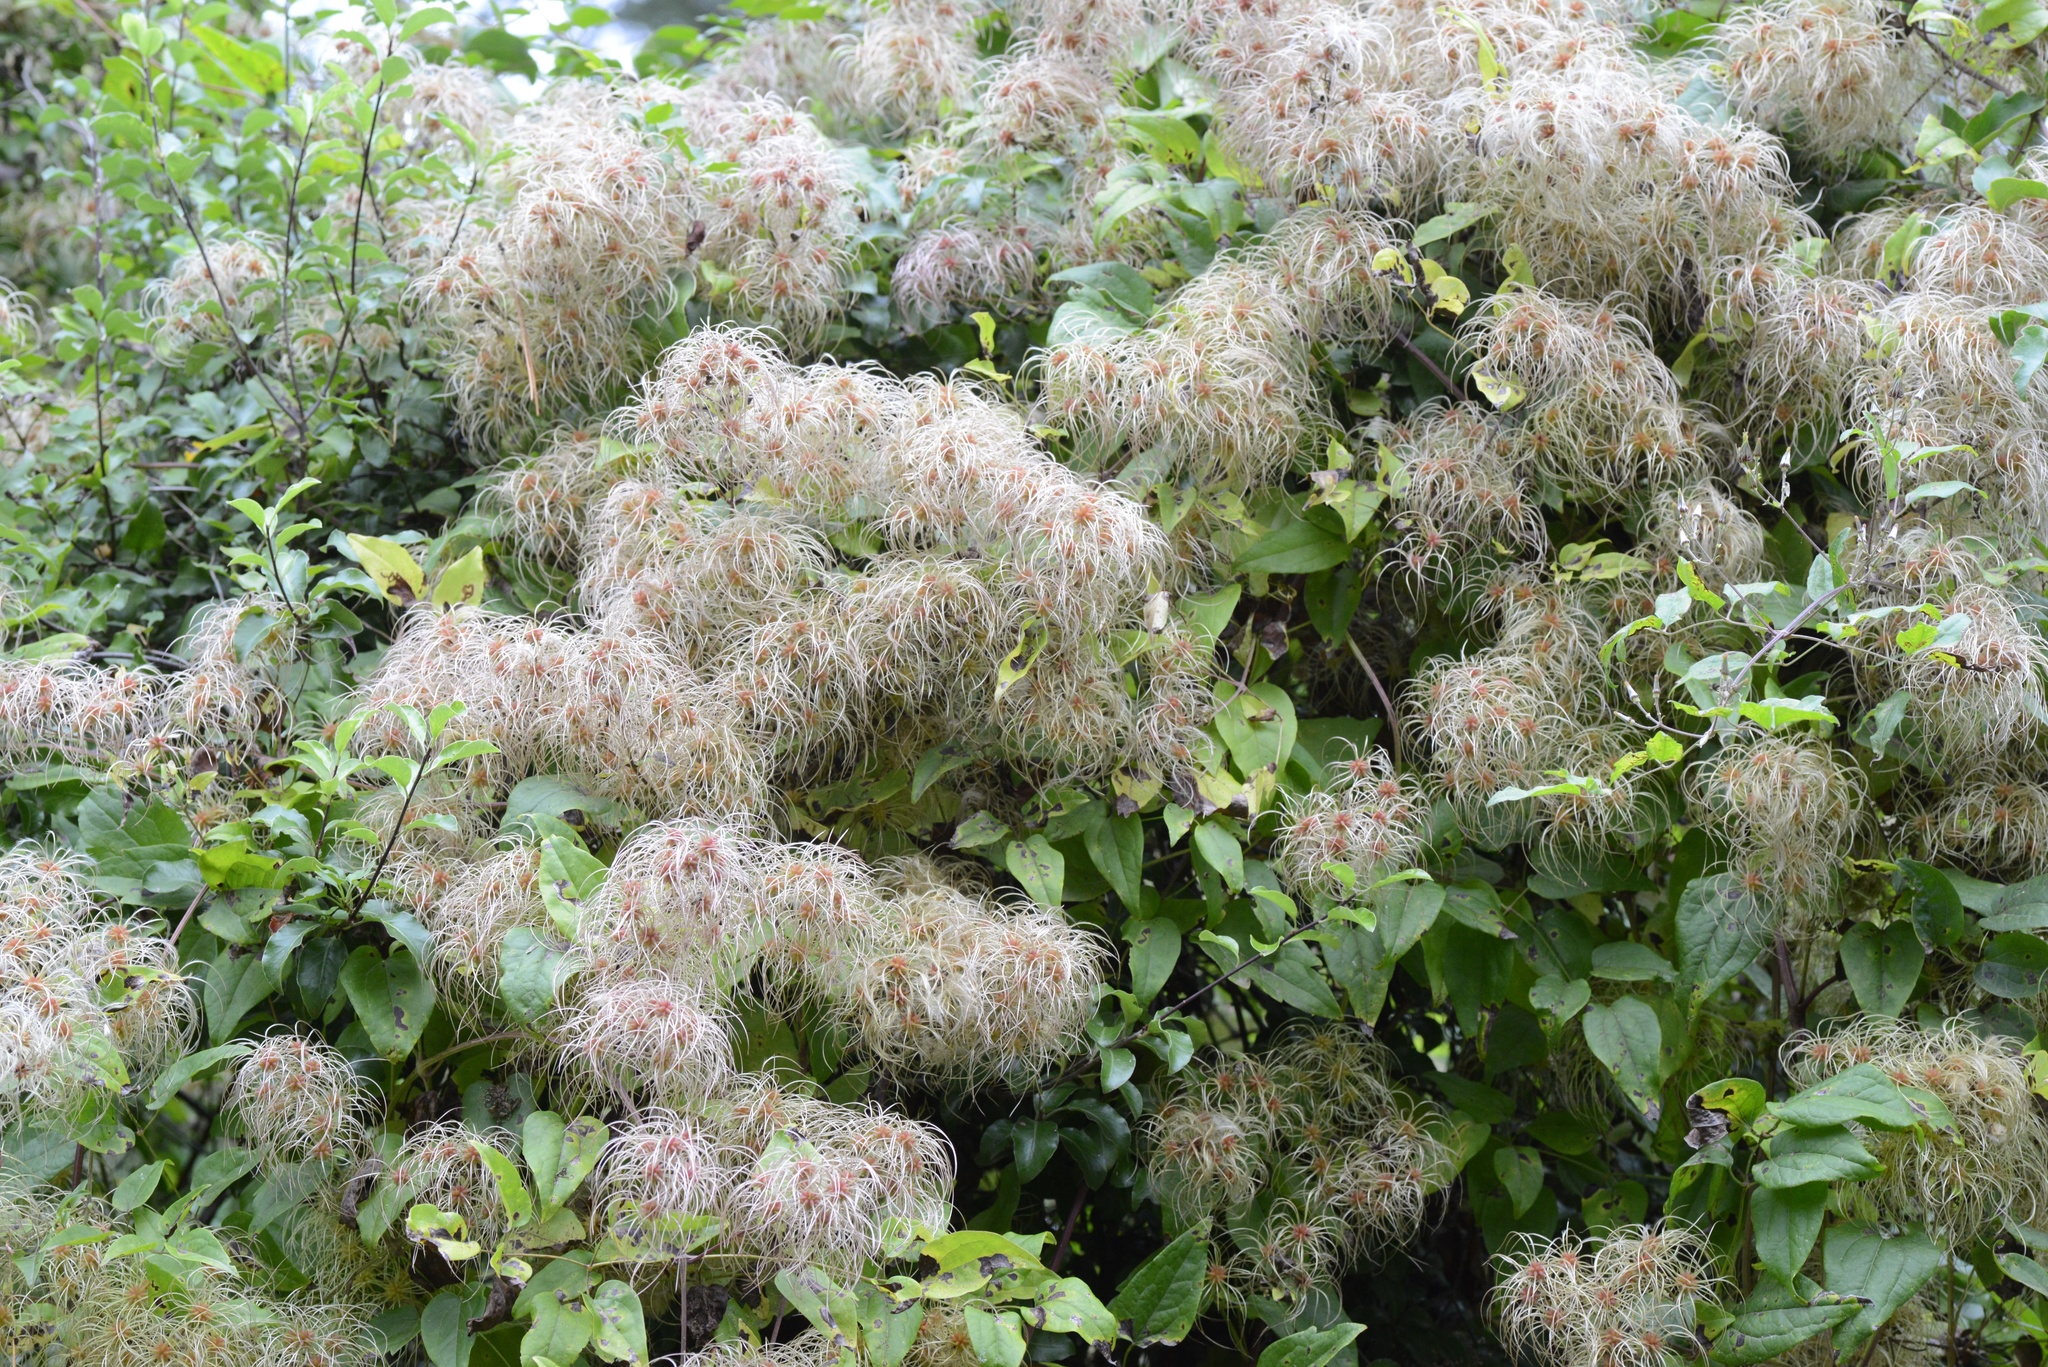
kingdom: Plantae
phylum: Tracheophyta
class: Magnoliopsida
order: Ranunculales
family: Ranunculaceae
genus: Clematis
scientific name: Clematis vitalba
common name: Evergreen clematis
